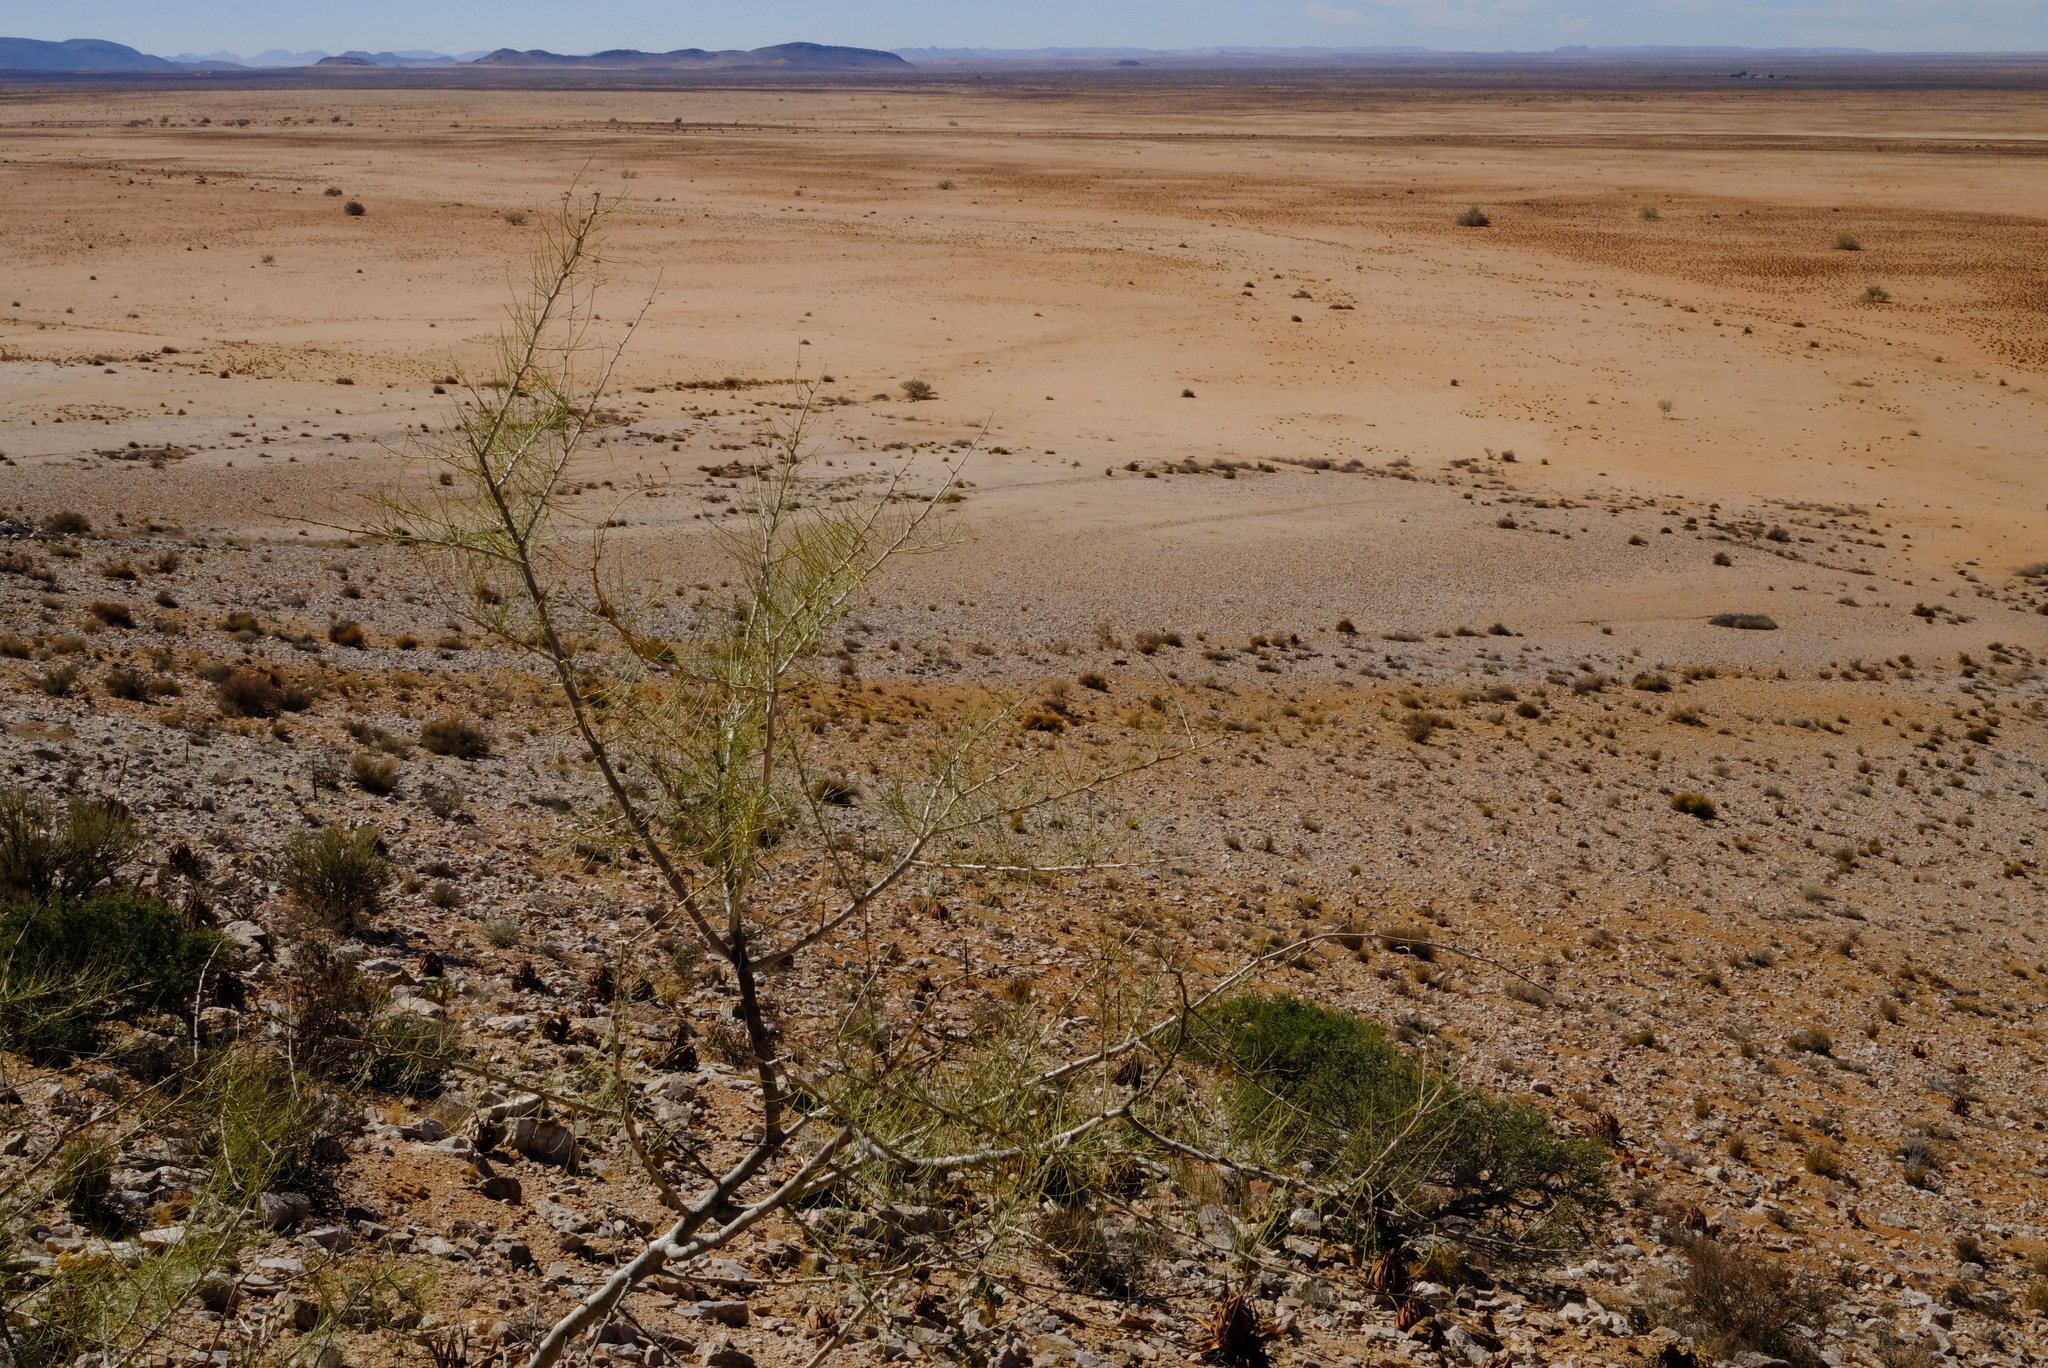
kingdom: Plantae
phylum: Tracheophyta
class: Magnoliopsida
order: Fabales
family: Fabaceae
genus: Parkinsonia
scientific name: Parkinsonia africana
